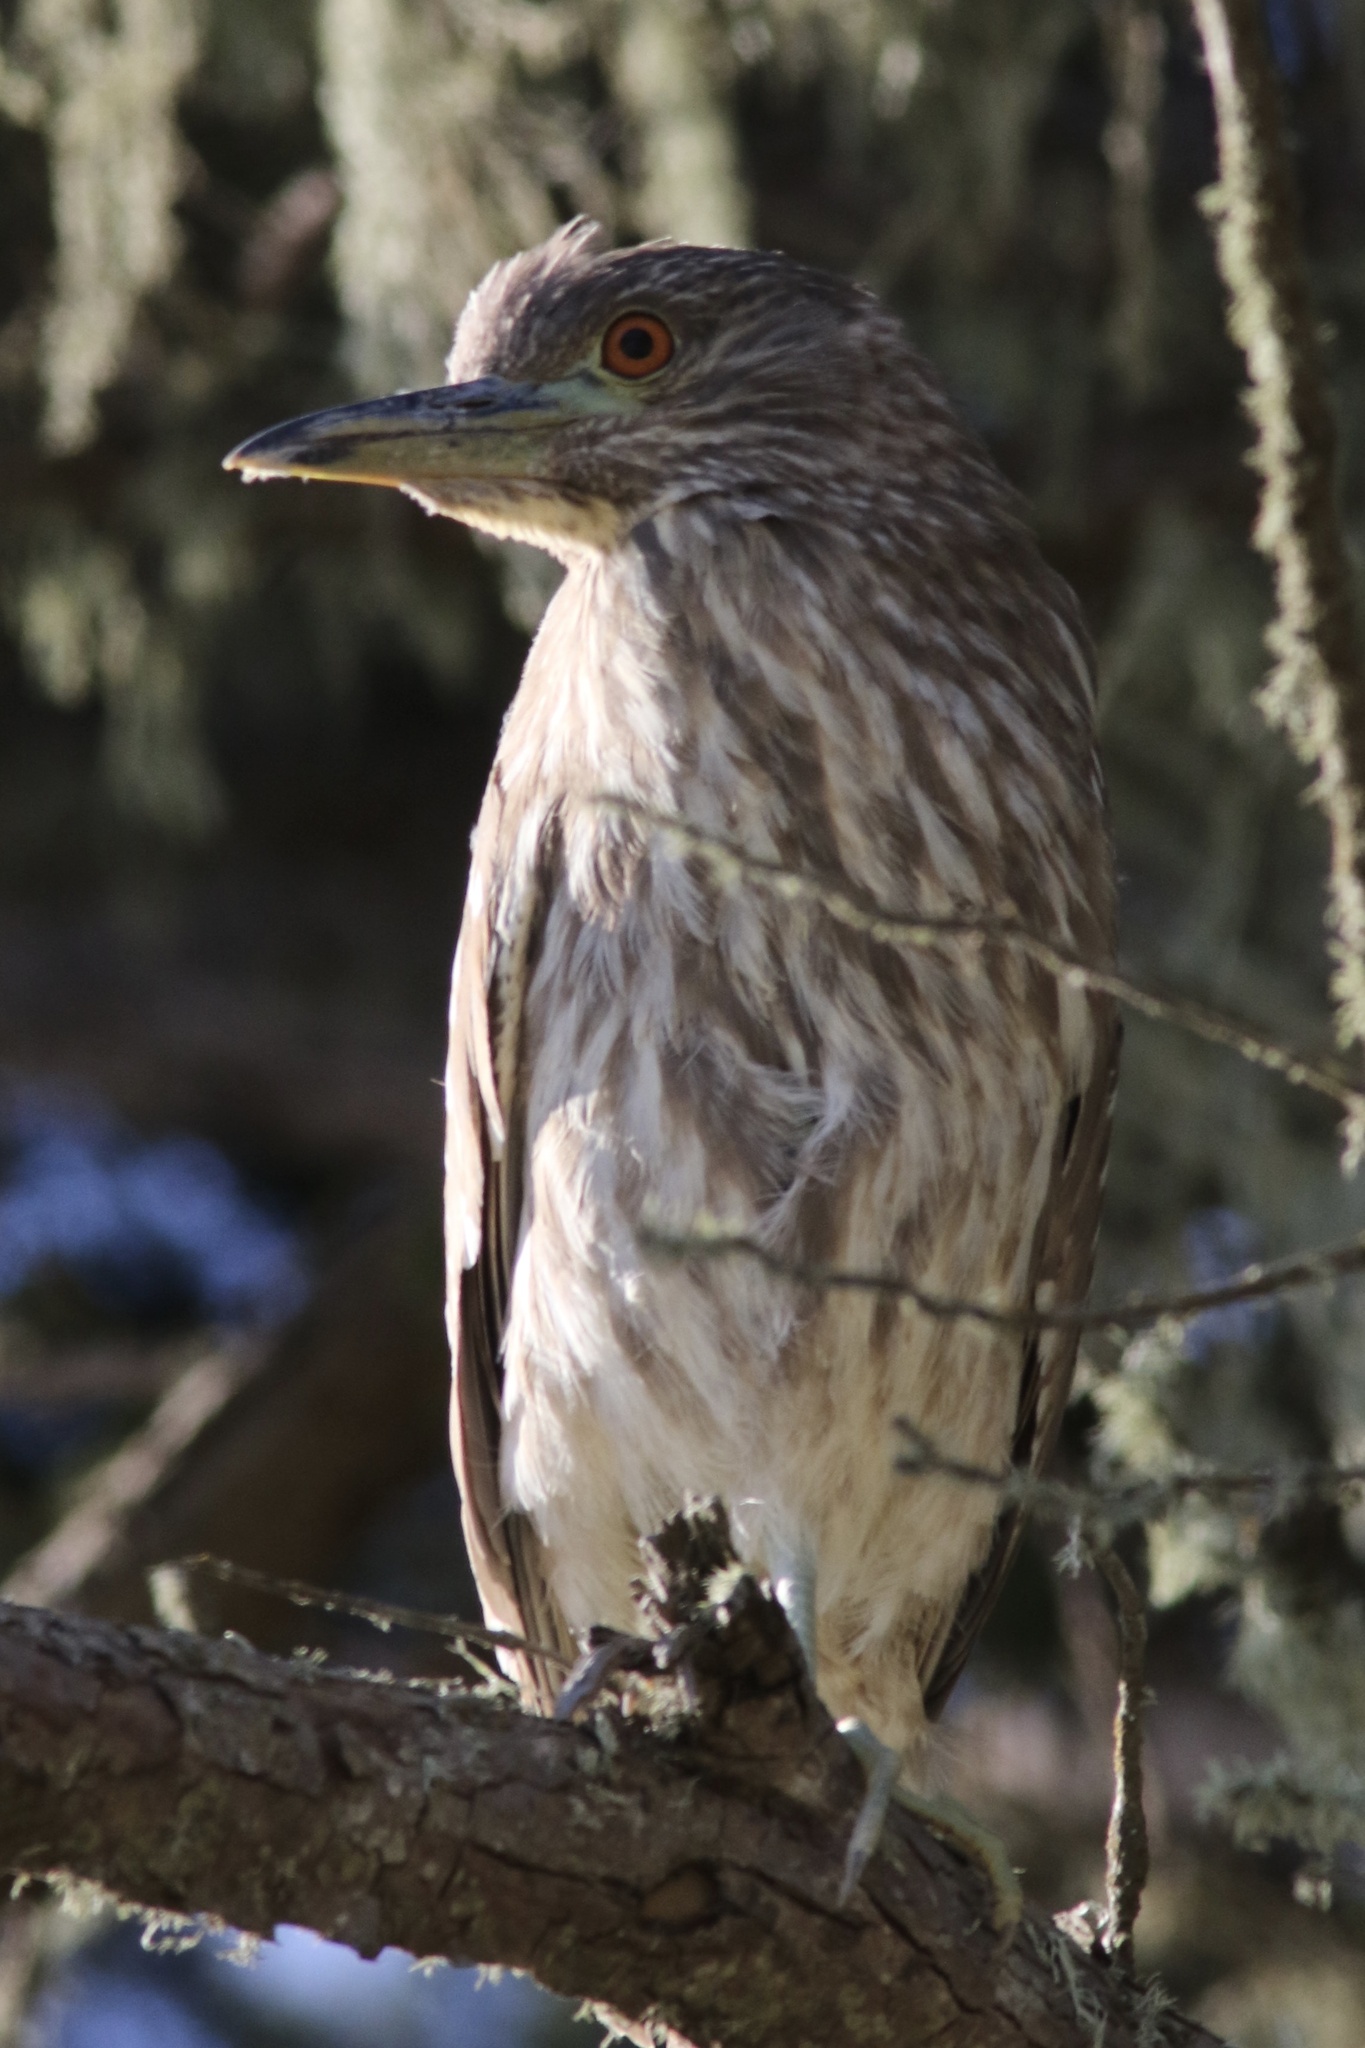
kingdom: Animalia
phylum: Chordata
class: Aves
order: Pelecaniformes
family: Ardeidae
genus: Nycticorax
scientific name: Nycticorax nycticorax
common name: Black-crowned night heron
